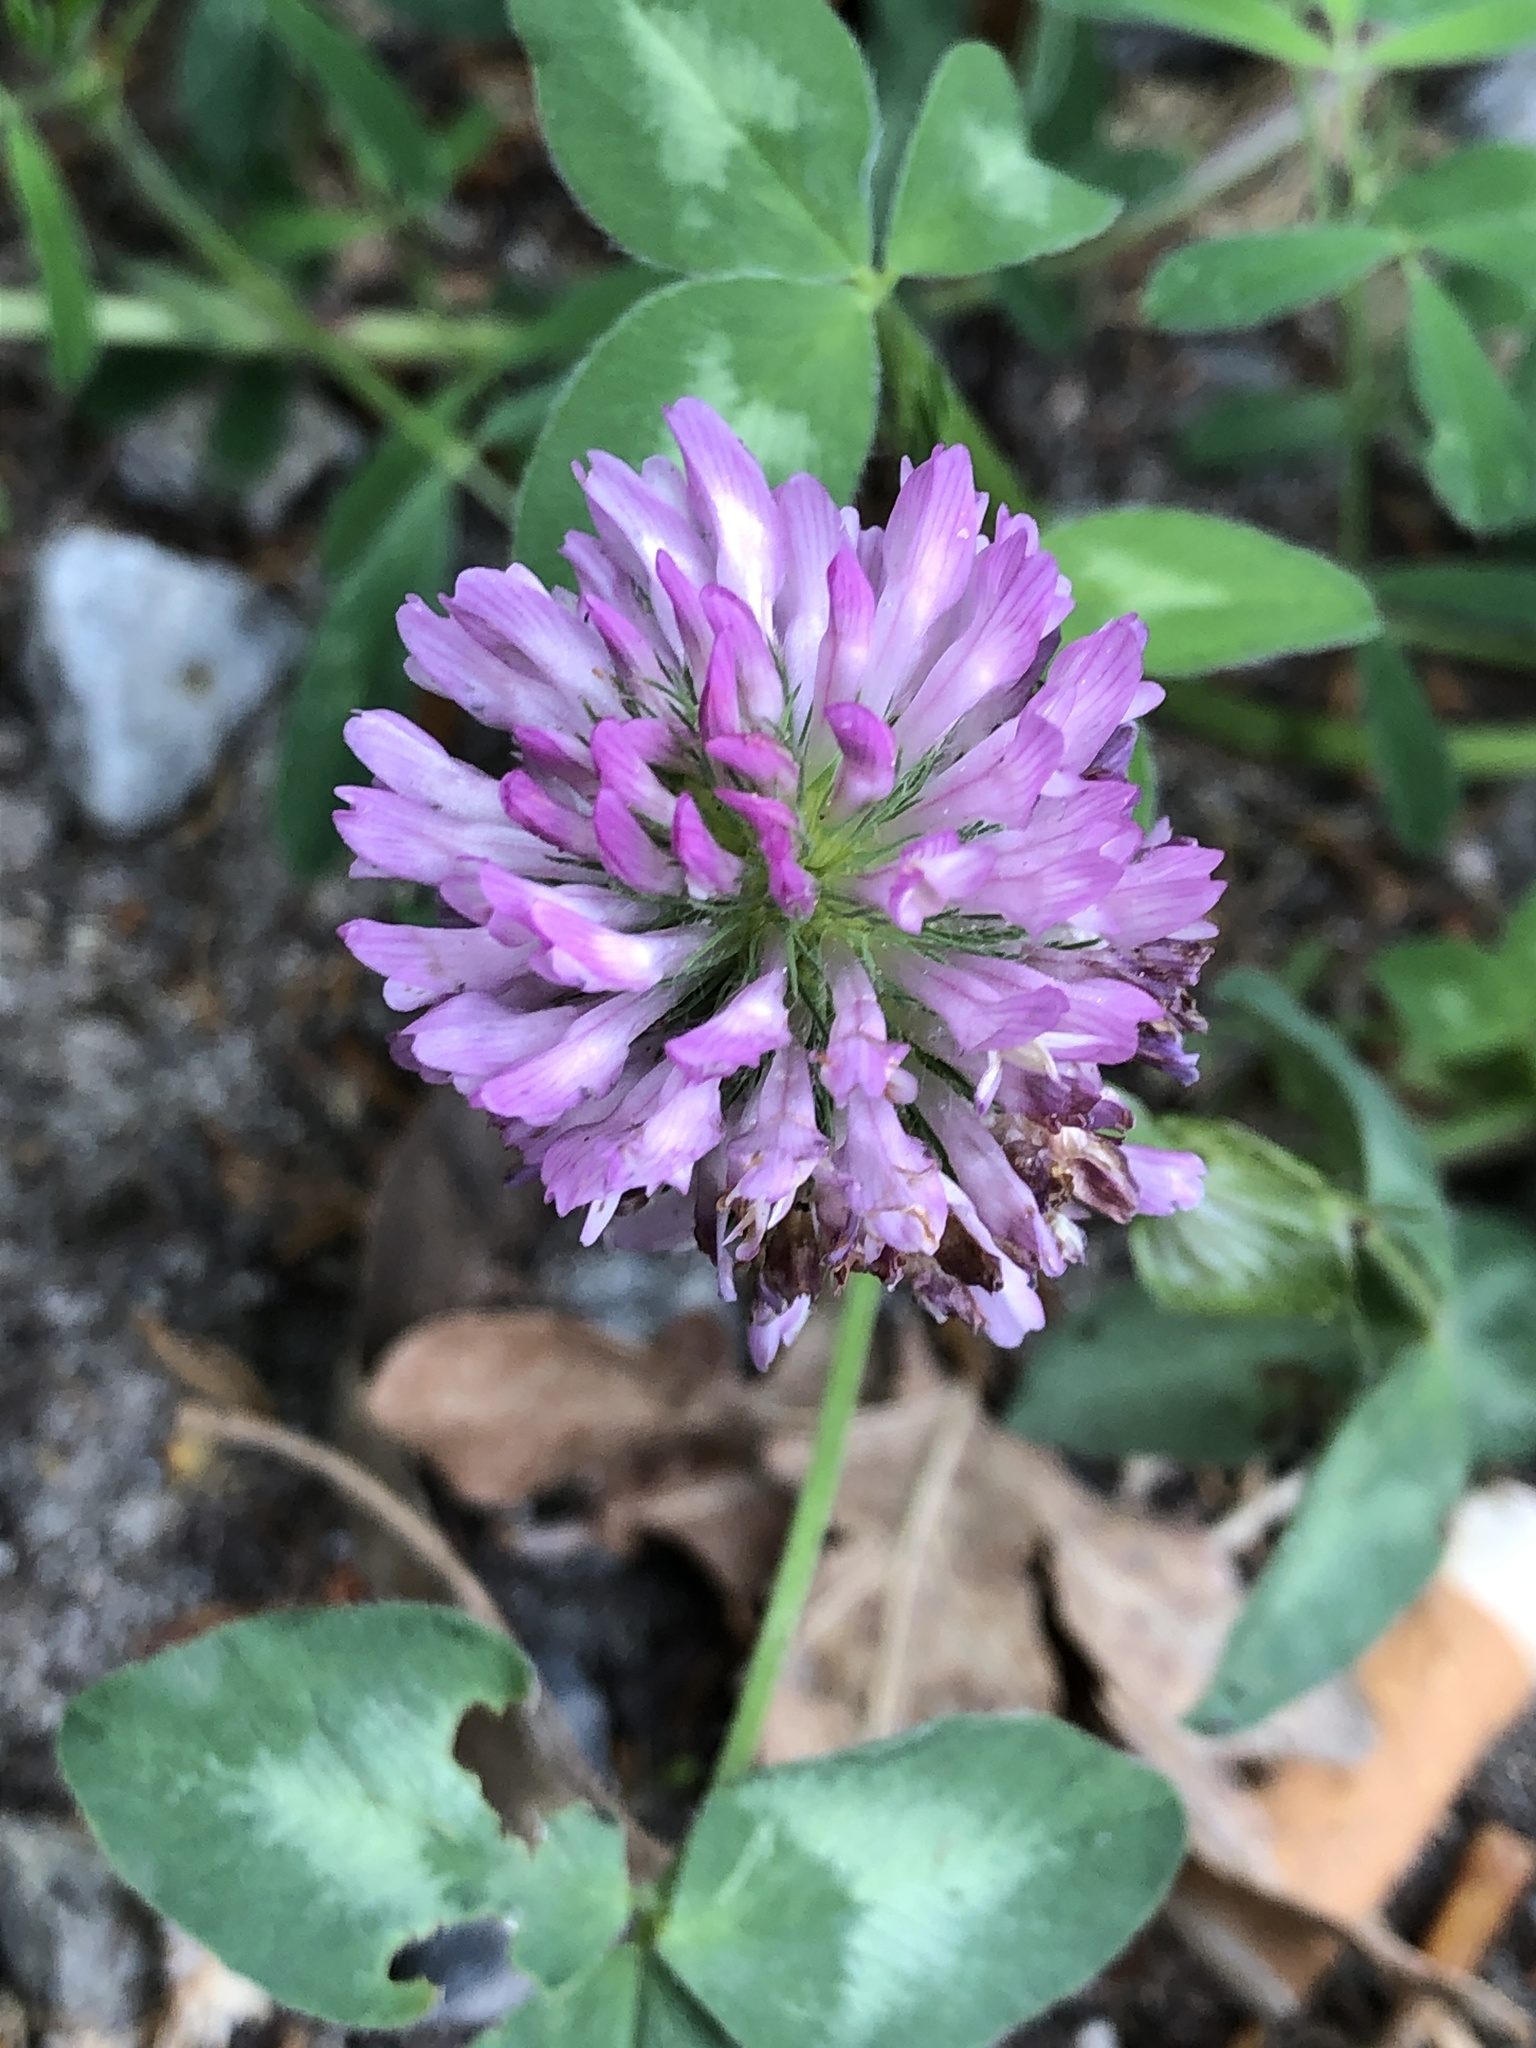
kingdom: Plantae
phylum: Tracheophyta
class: Magnoliopsida
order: Fabales
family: Fabaceae
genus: Trifolium
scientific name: Trifolium pratense
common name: Red clover
